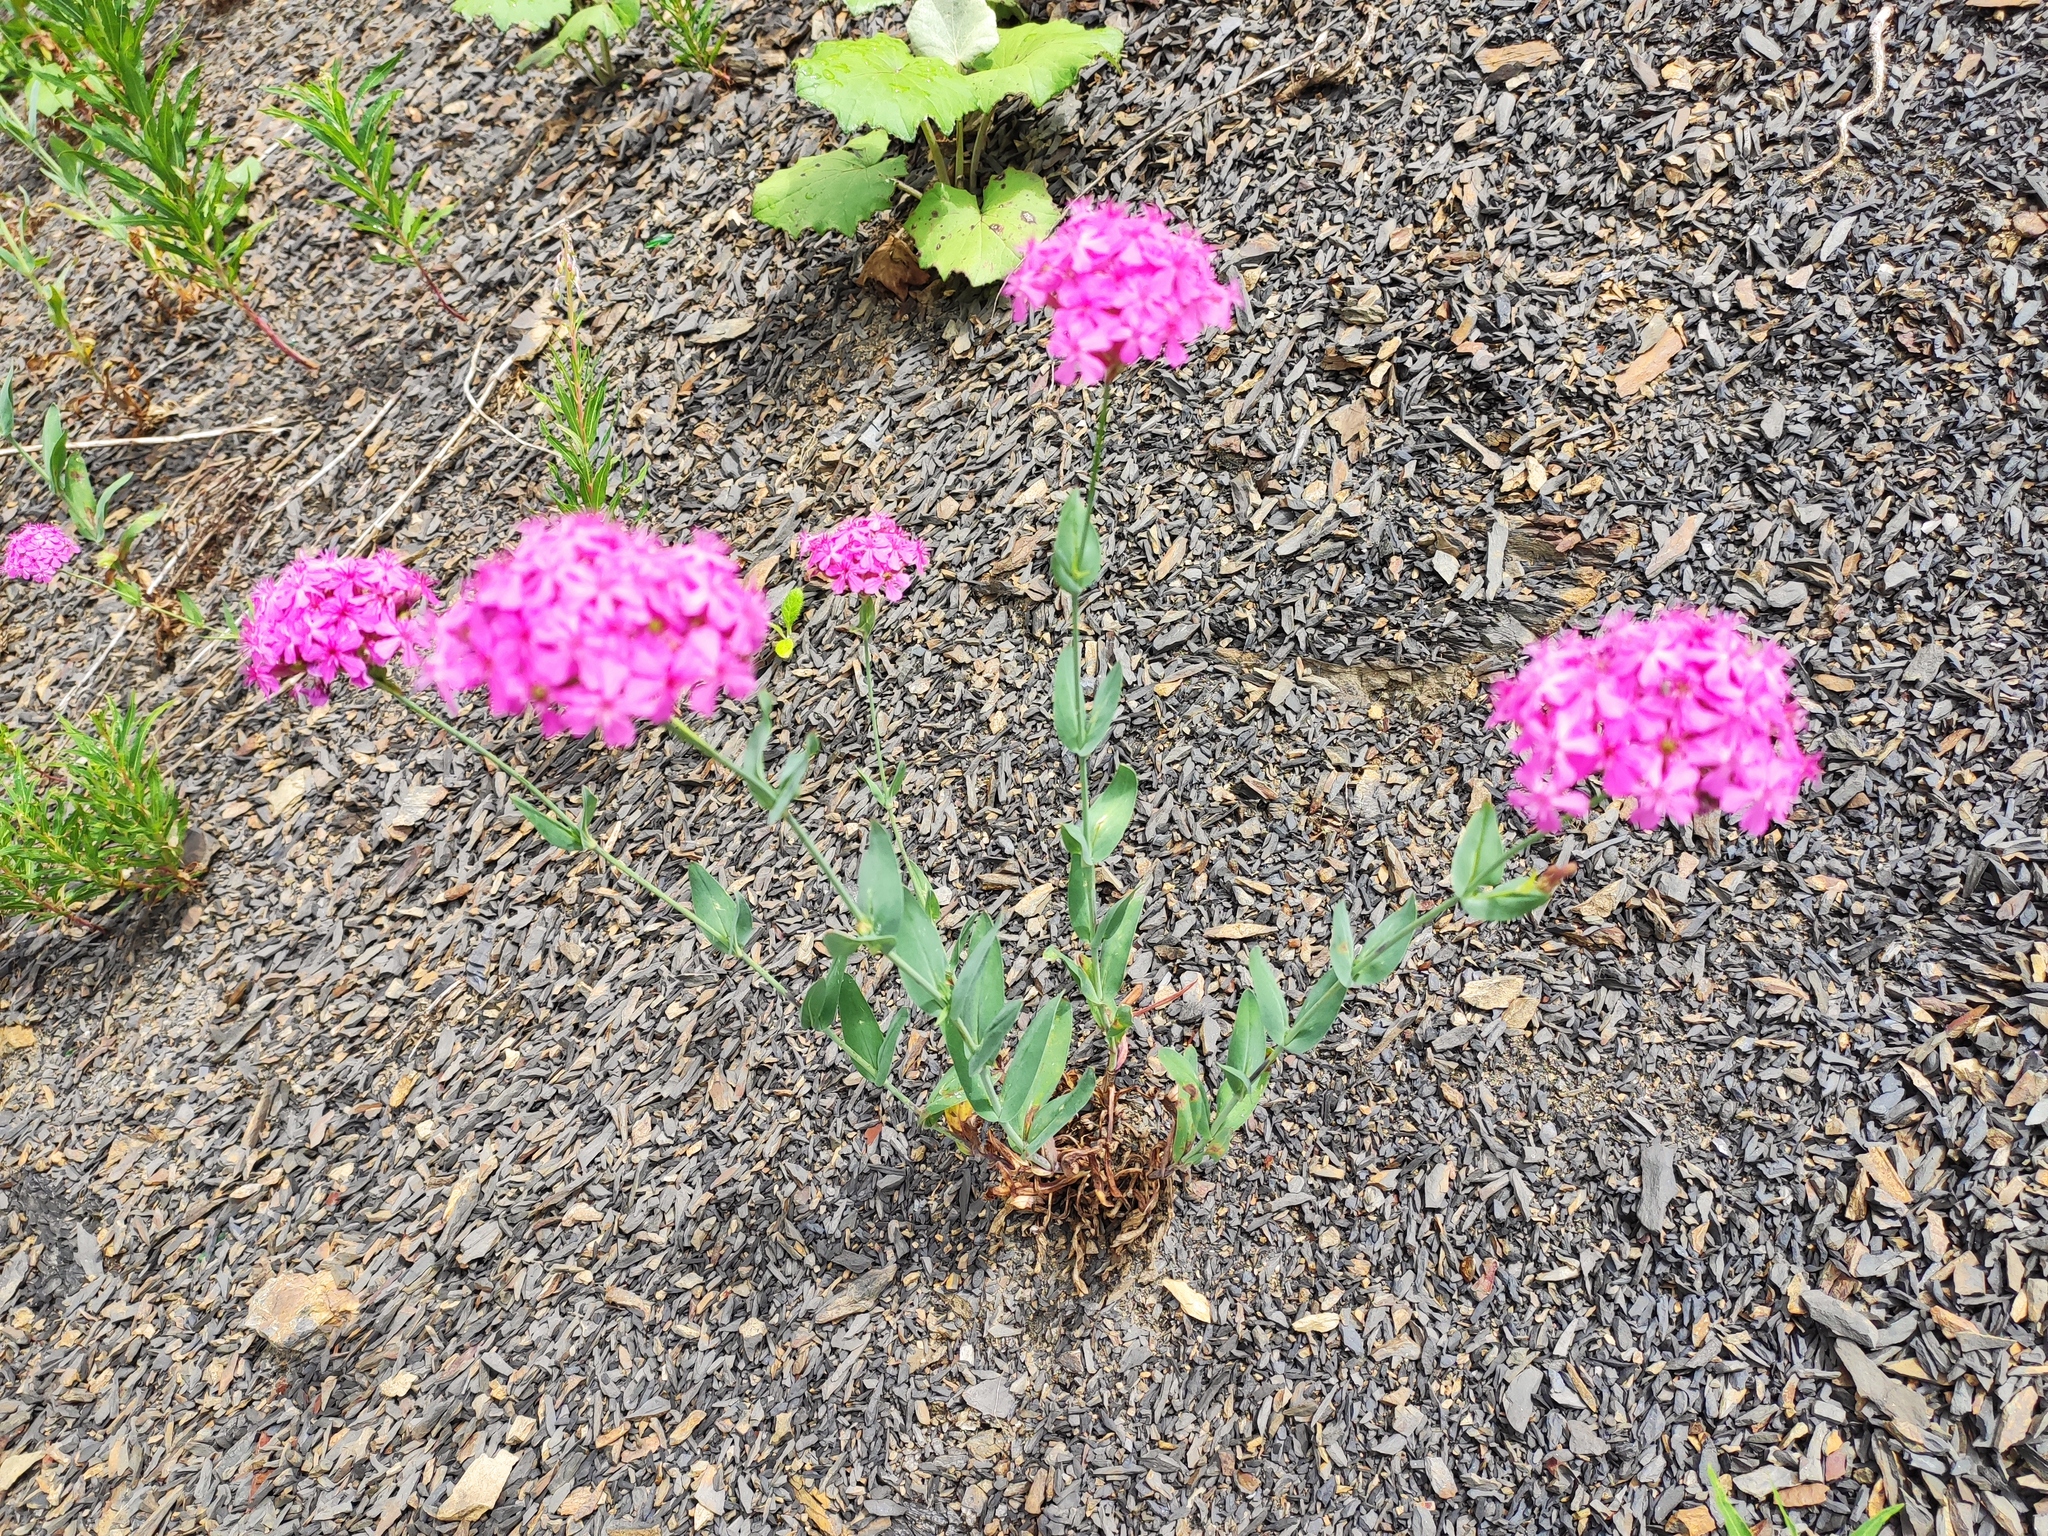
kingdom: Plantae
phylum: Tracheophyta
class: Magnoliopsida
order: Caryophyllales
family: Caryophyllaceae
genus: Atocion
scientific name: Atocion compactum
